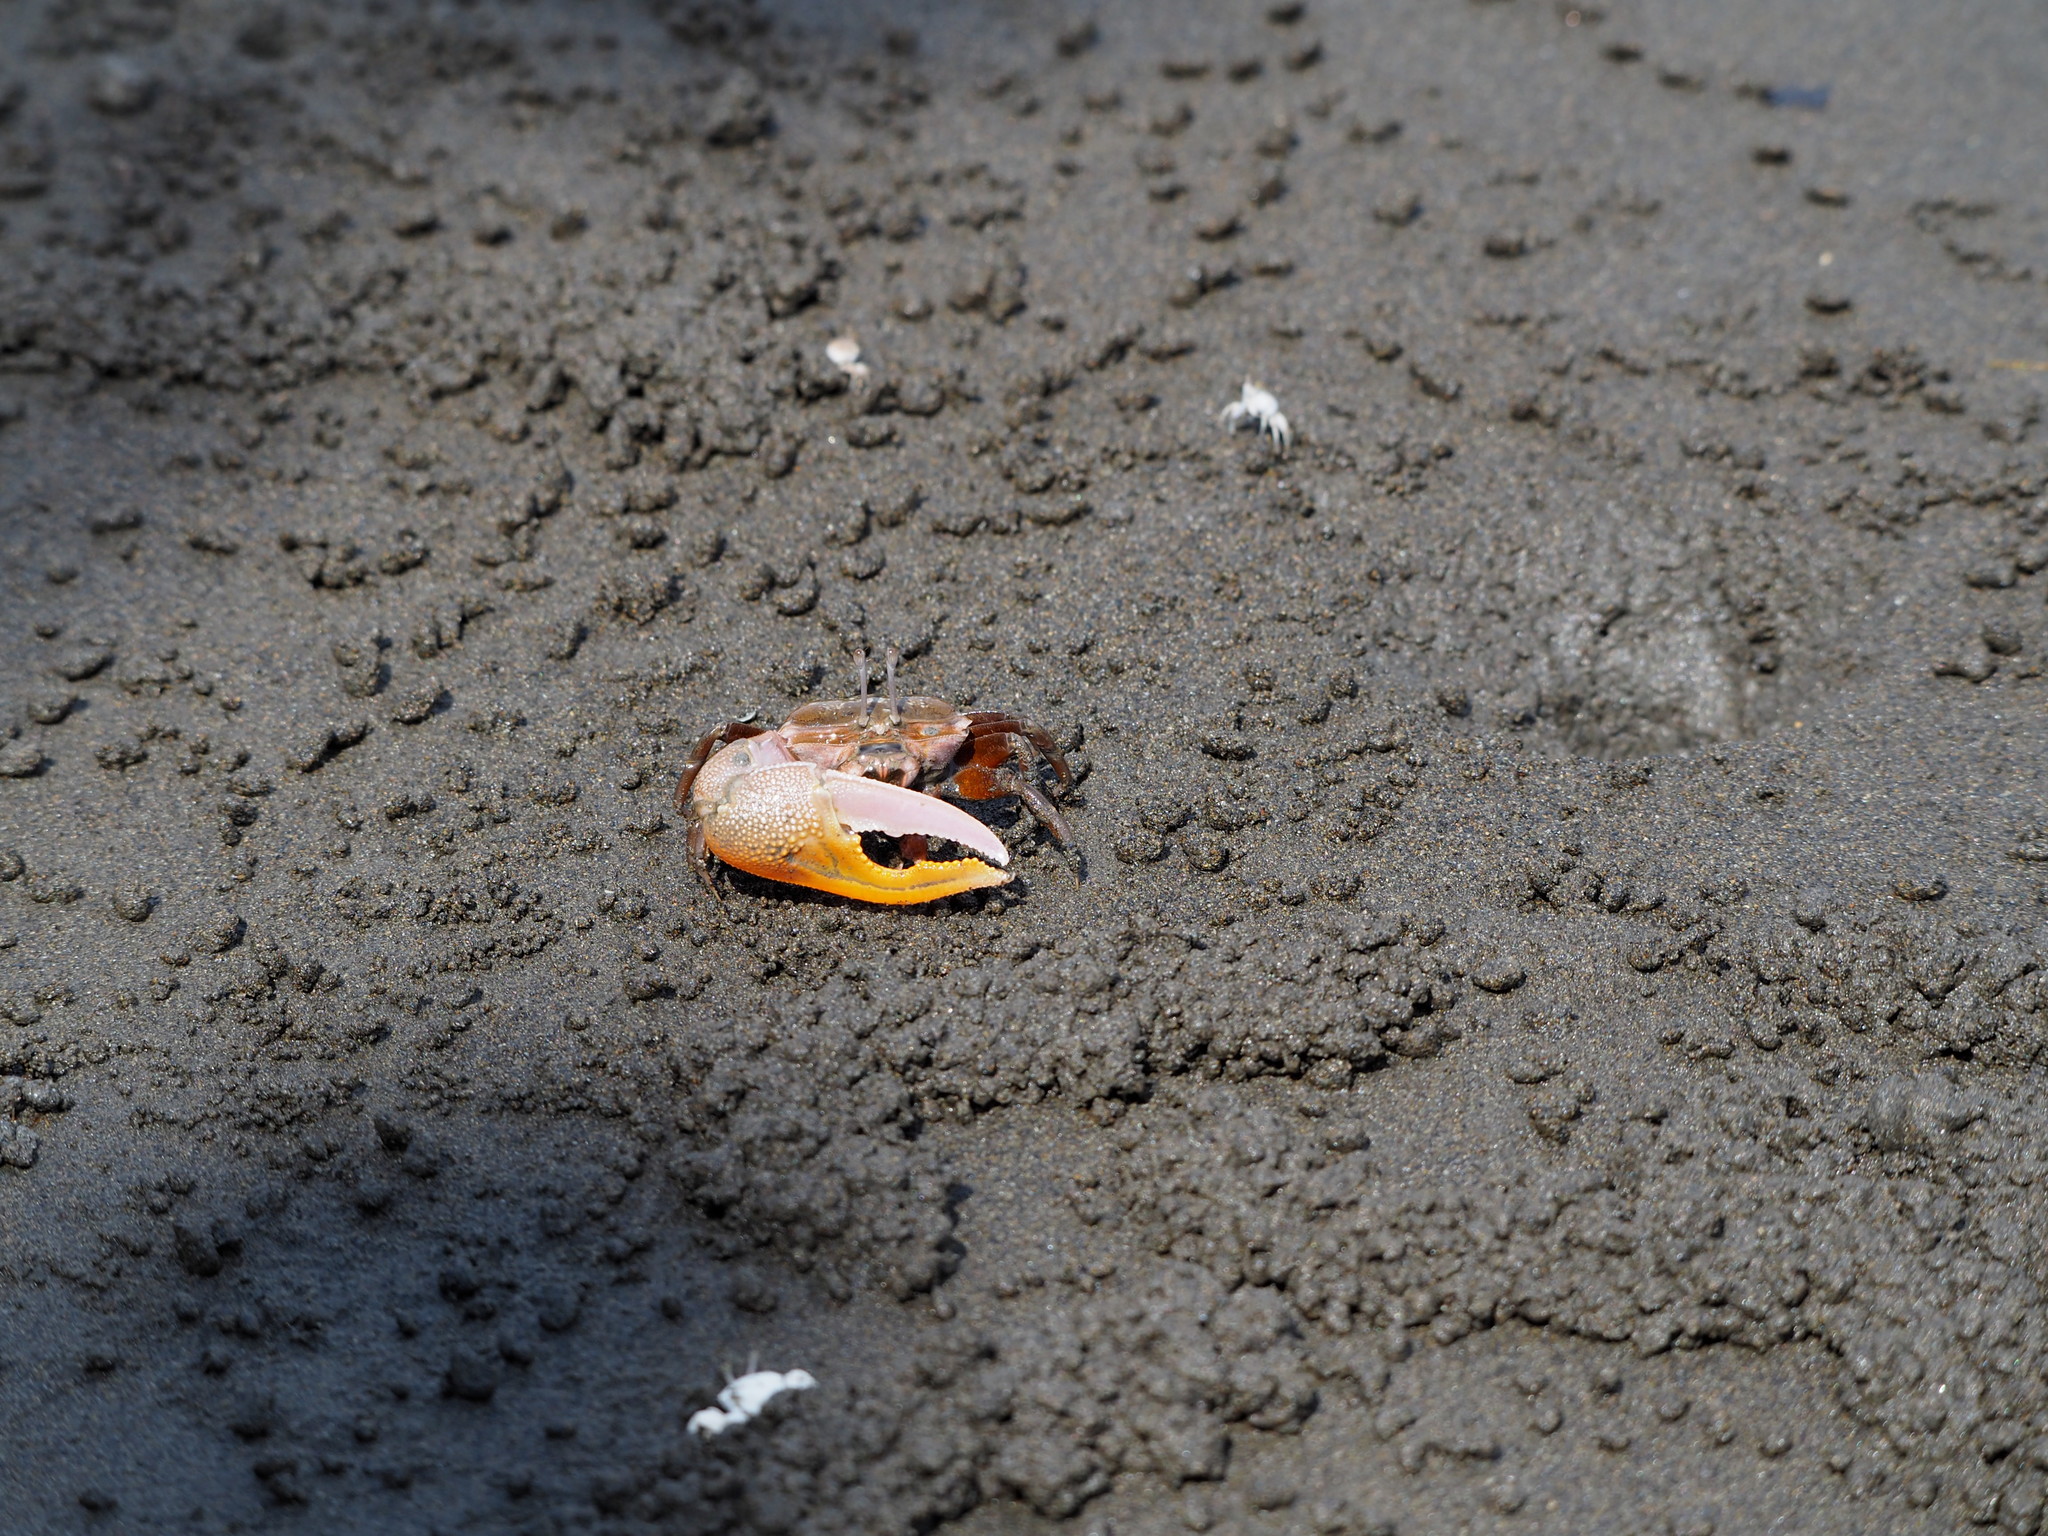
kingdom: Animalia
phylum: Arthropoda
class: Malacostraca
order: Decapoda
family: Ocypodidae
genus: Gelasimus
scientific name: Gelasimus borealis
